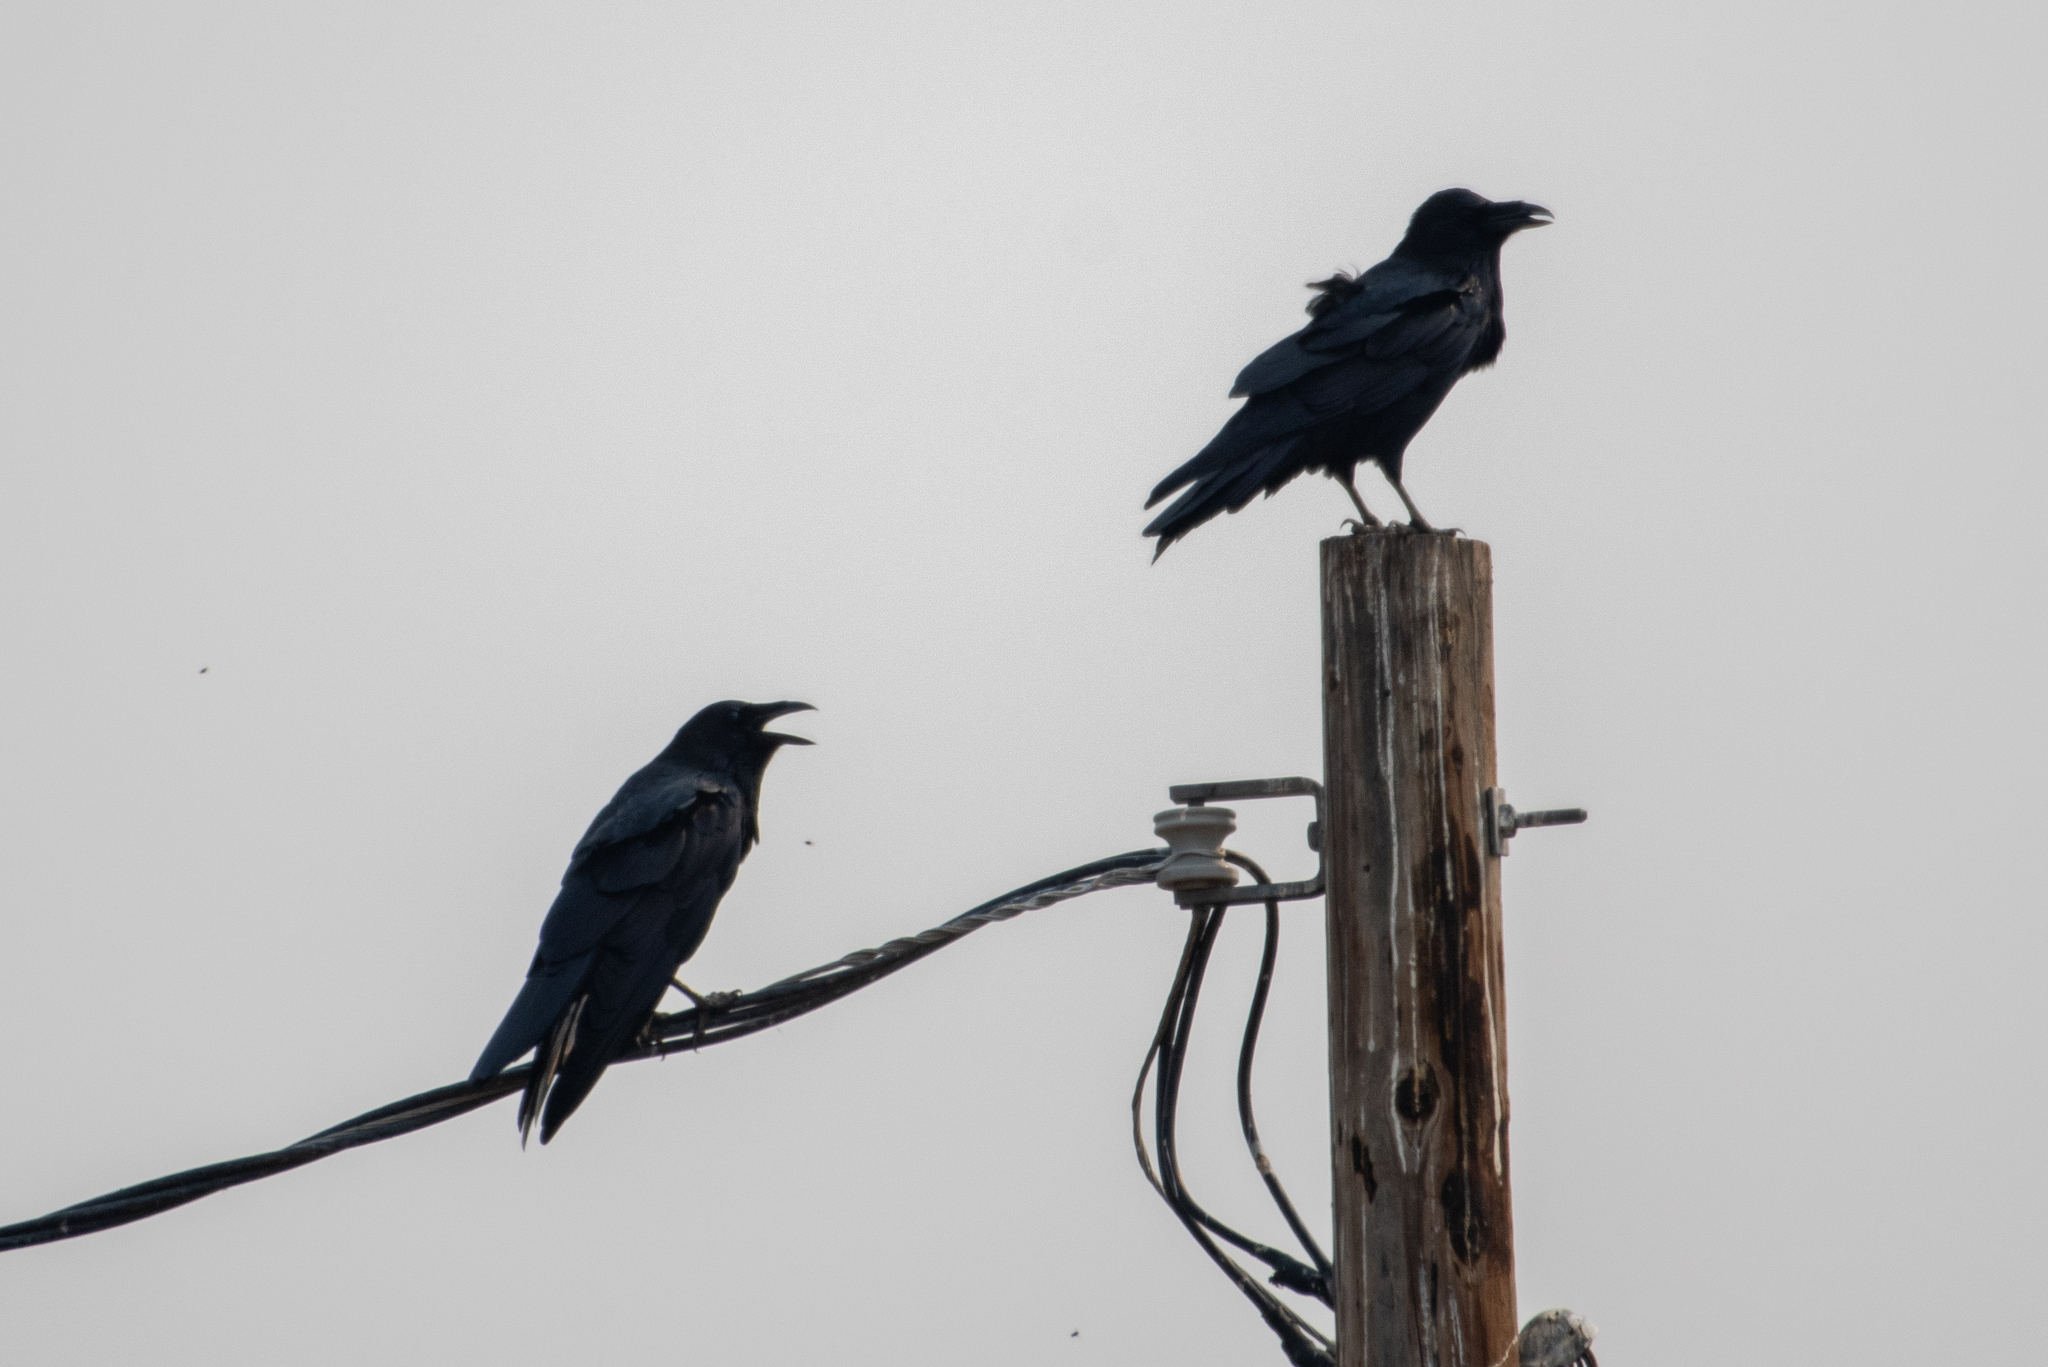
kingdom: Animalia
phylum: Chordata
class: Aves
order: Passeriformes
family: Corvidae
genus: Corvus
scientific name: Corvus corax
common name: Common raven
